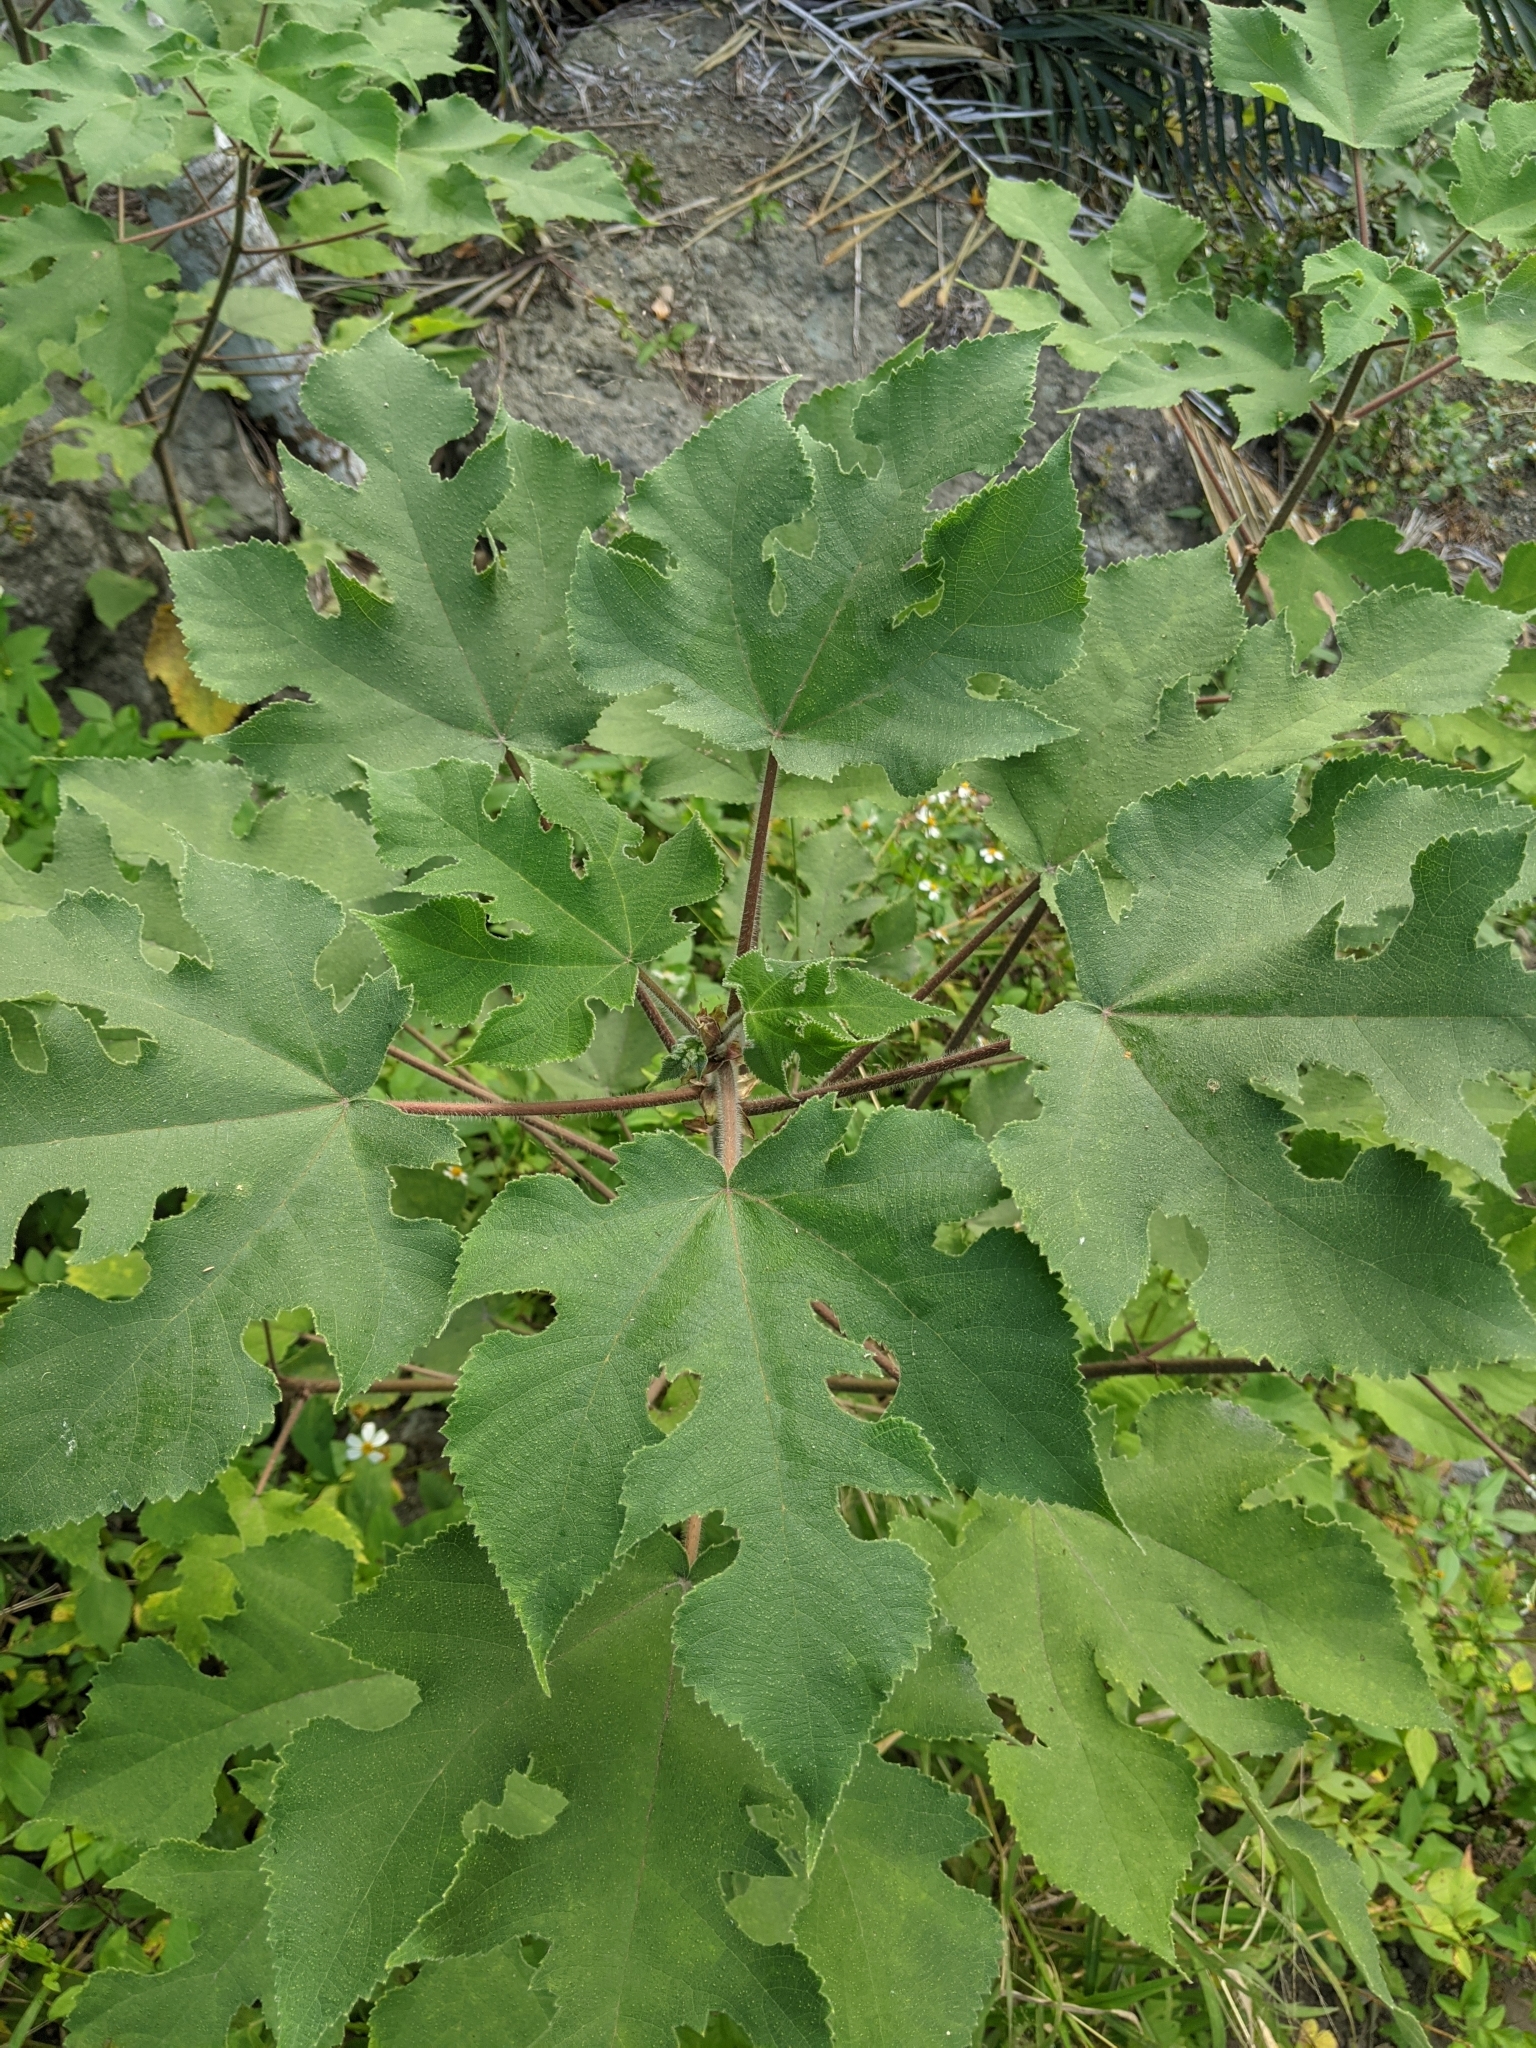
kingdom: Plantae
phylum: Tracheophyta
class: Magnoliopsida
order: Rosales
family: Moraceae
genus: Broussonetia
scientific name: Broussonetia papyrifera
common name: Paper mulberry
